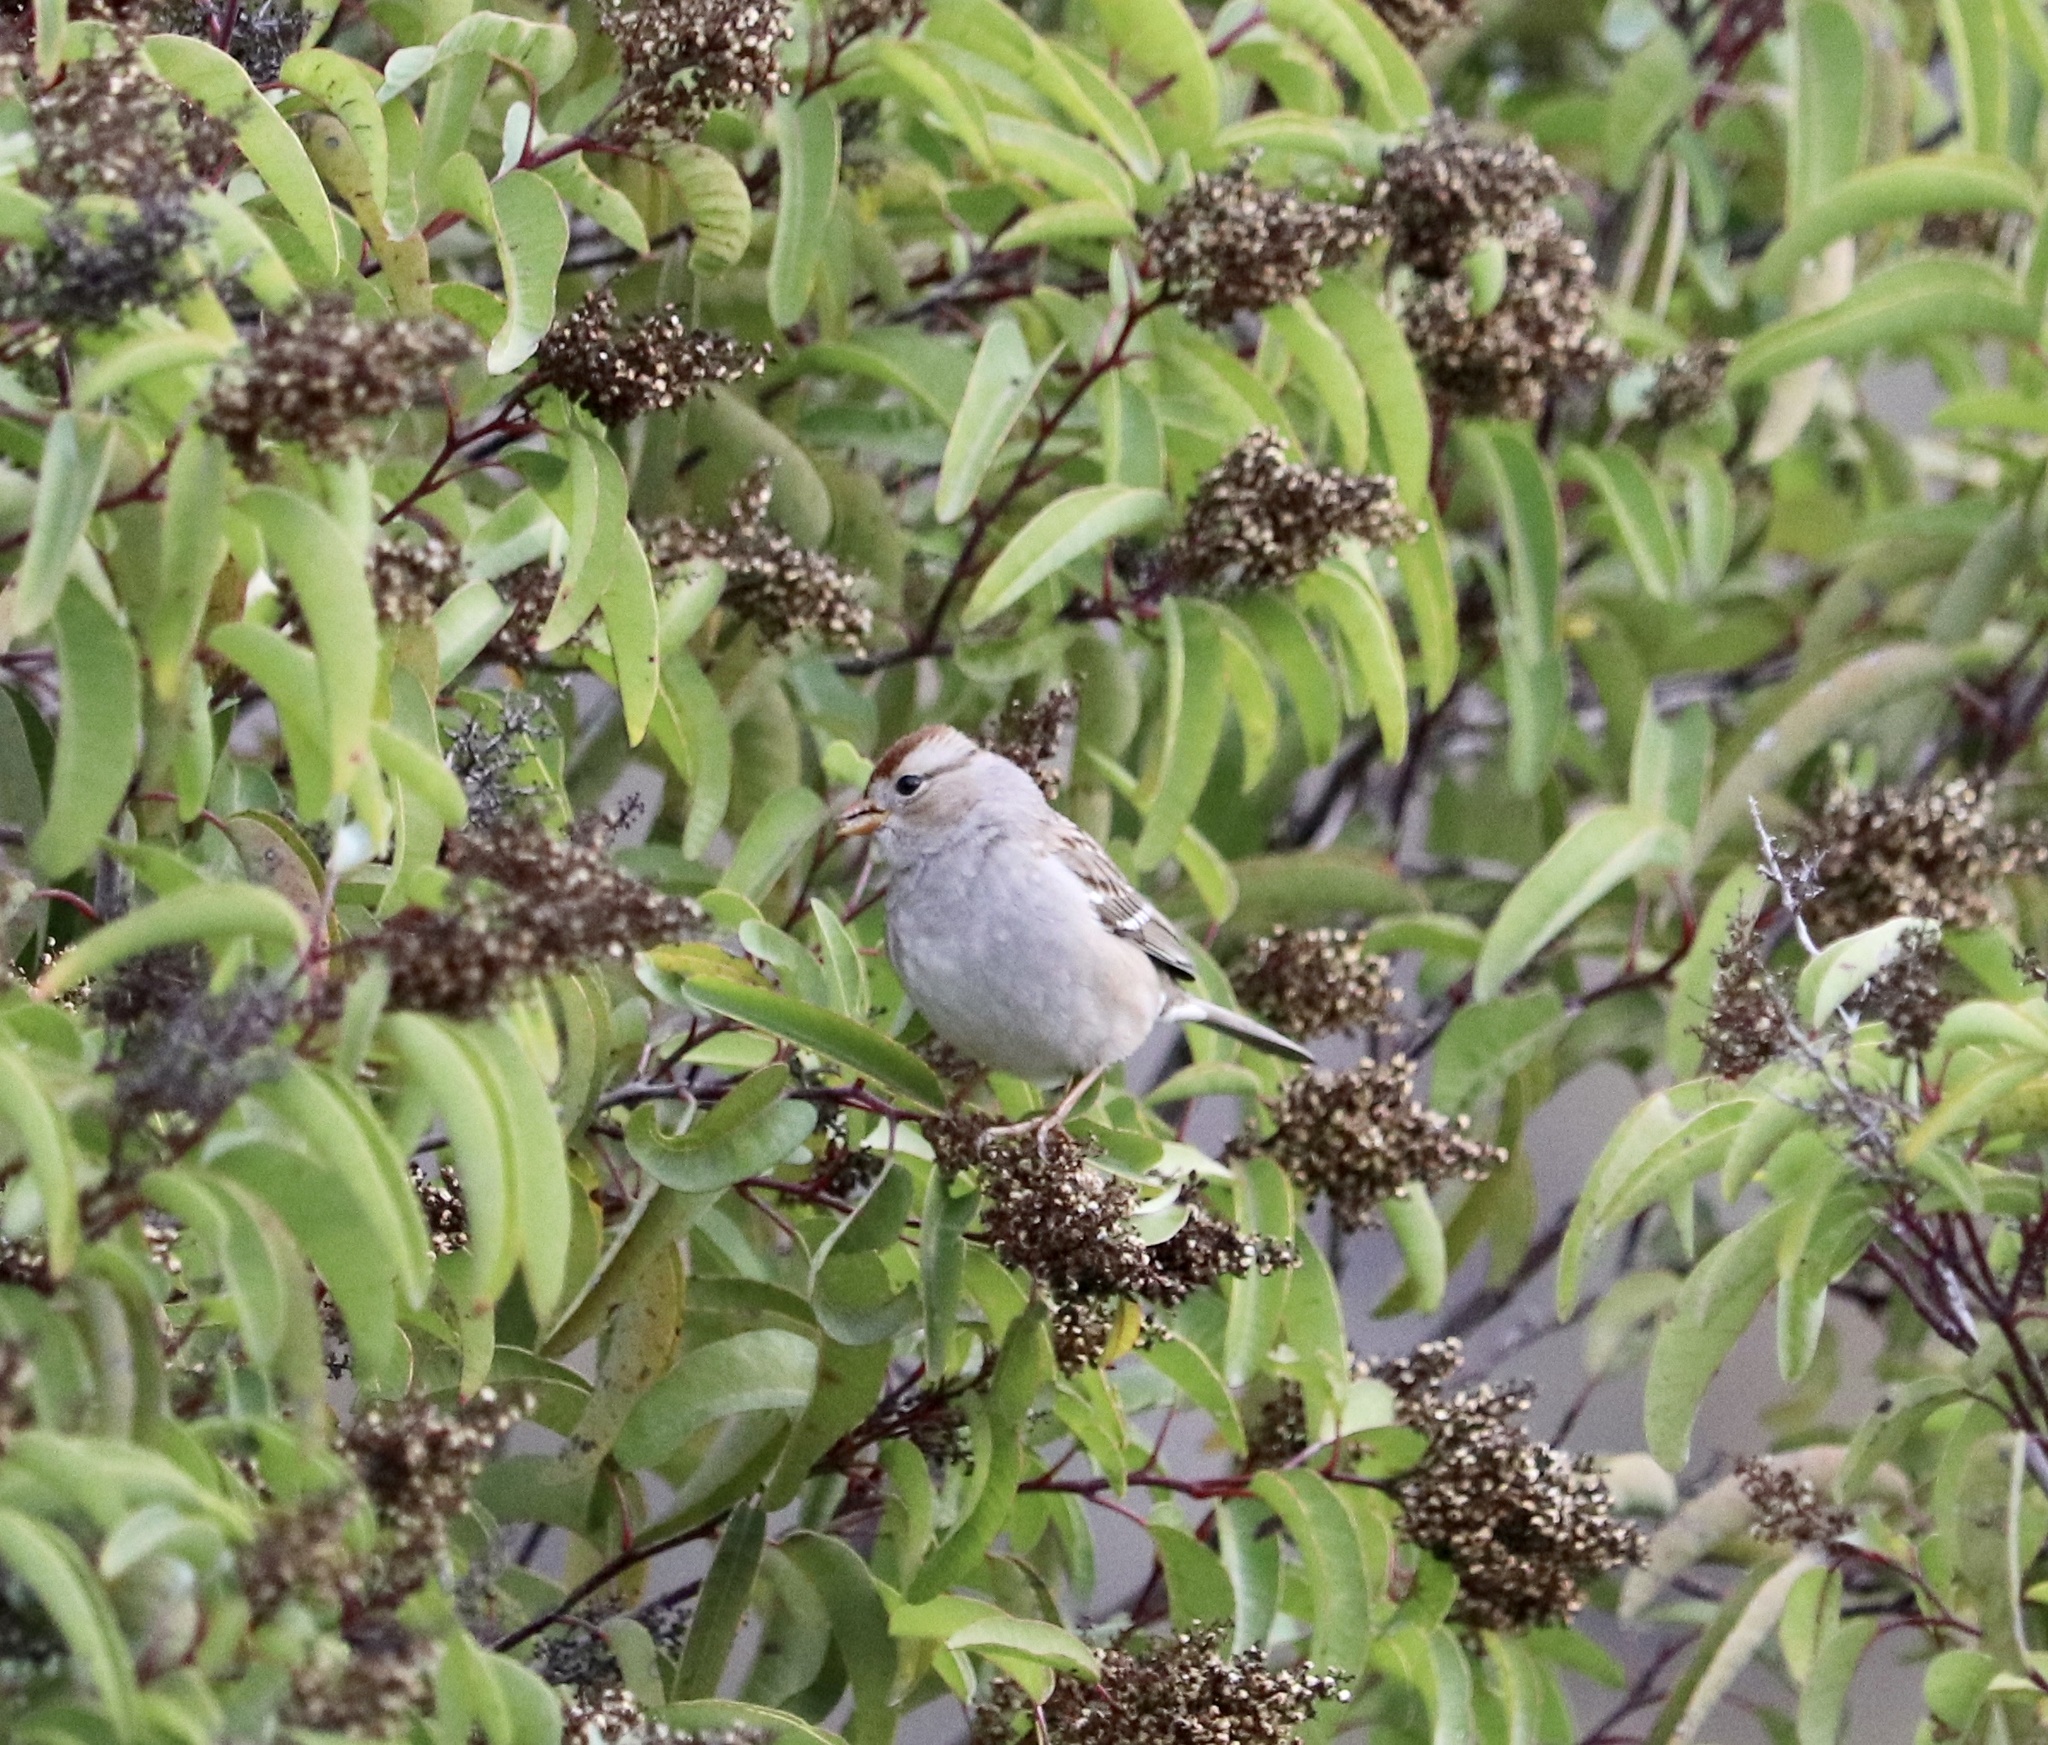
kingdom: Animalia
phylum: Chordata
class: Aves
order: Passeriformes
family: Passerellidae
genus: Zonotrichia
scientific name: Zonotrichia leucophrys
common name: White-crowned sparrow
